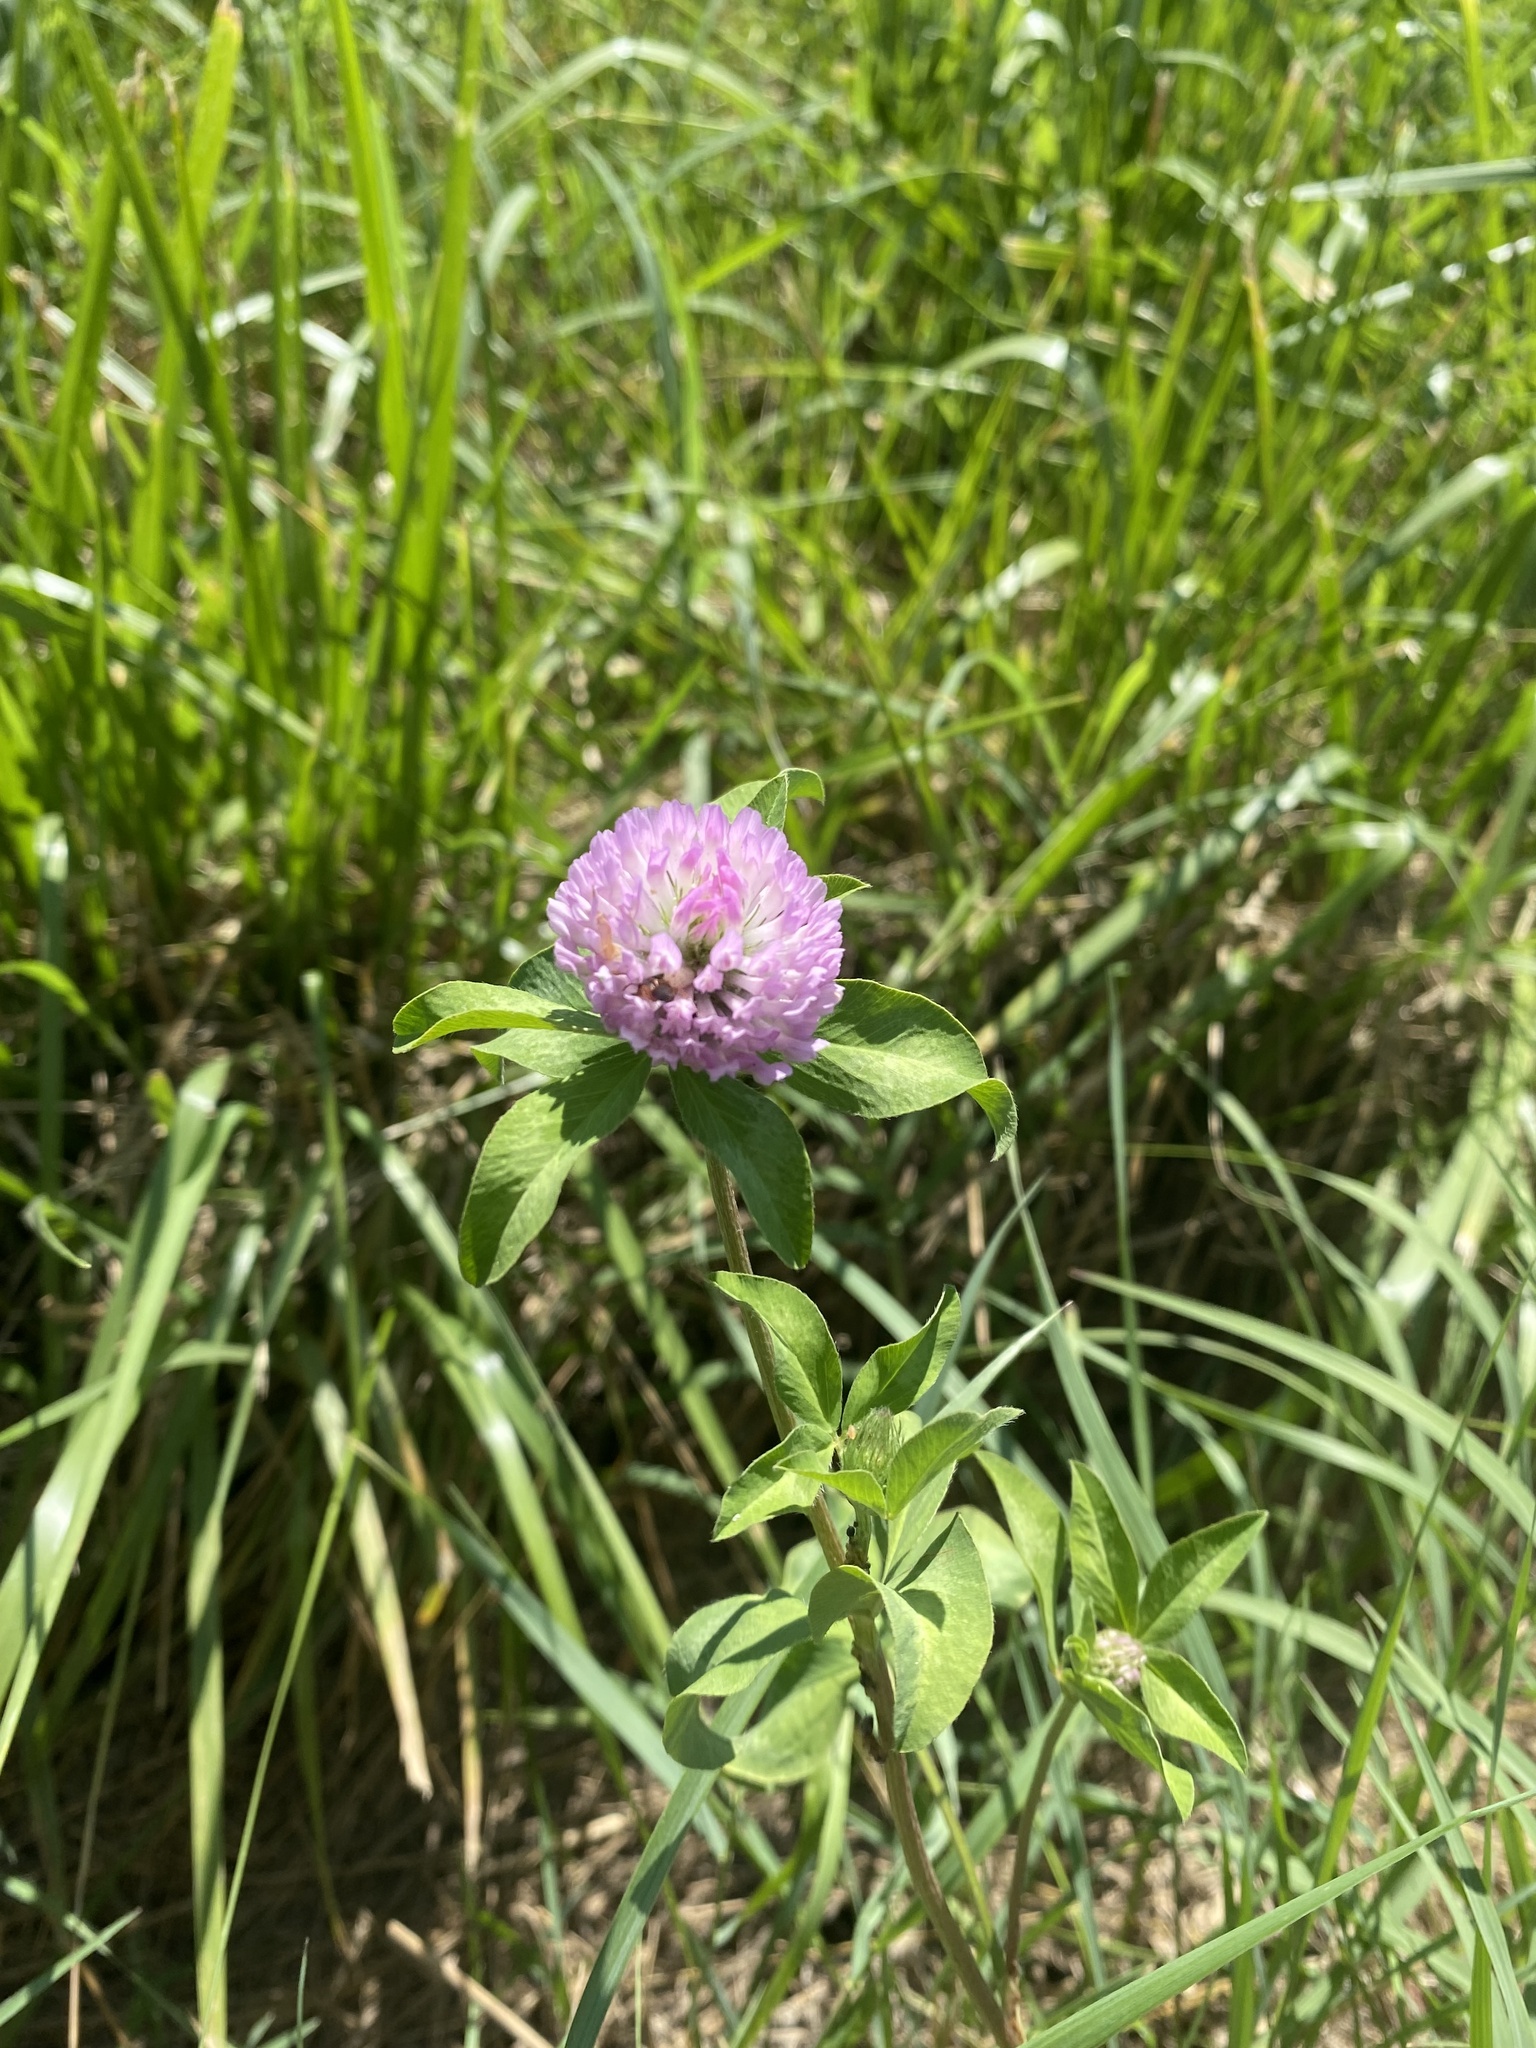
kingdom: Plantae
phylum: Tracheophyta
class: Magnoliopsida
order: Fabales
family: Fabaceae
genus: Trifolium
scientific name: Trifolium pratense
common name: Red clover
